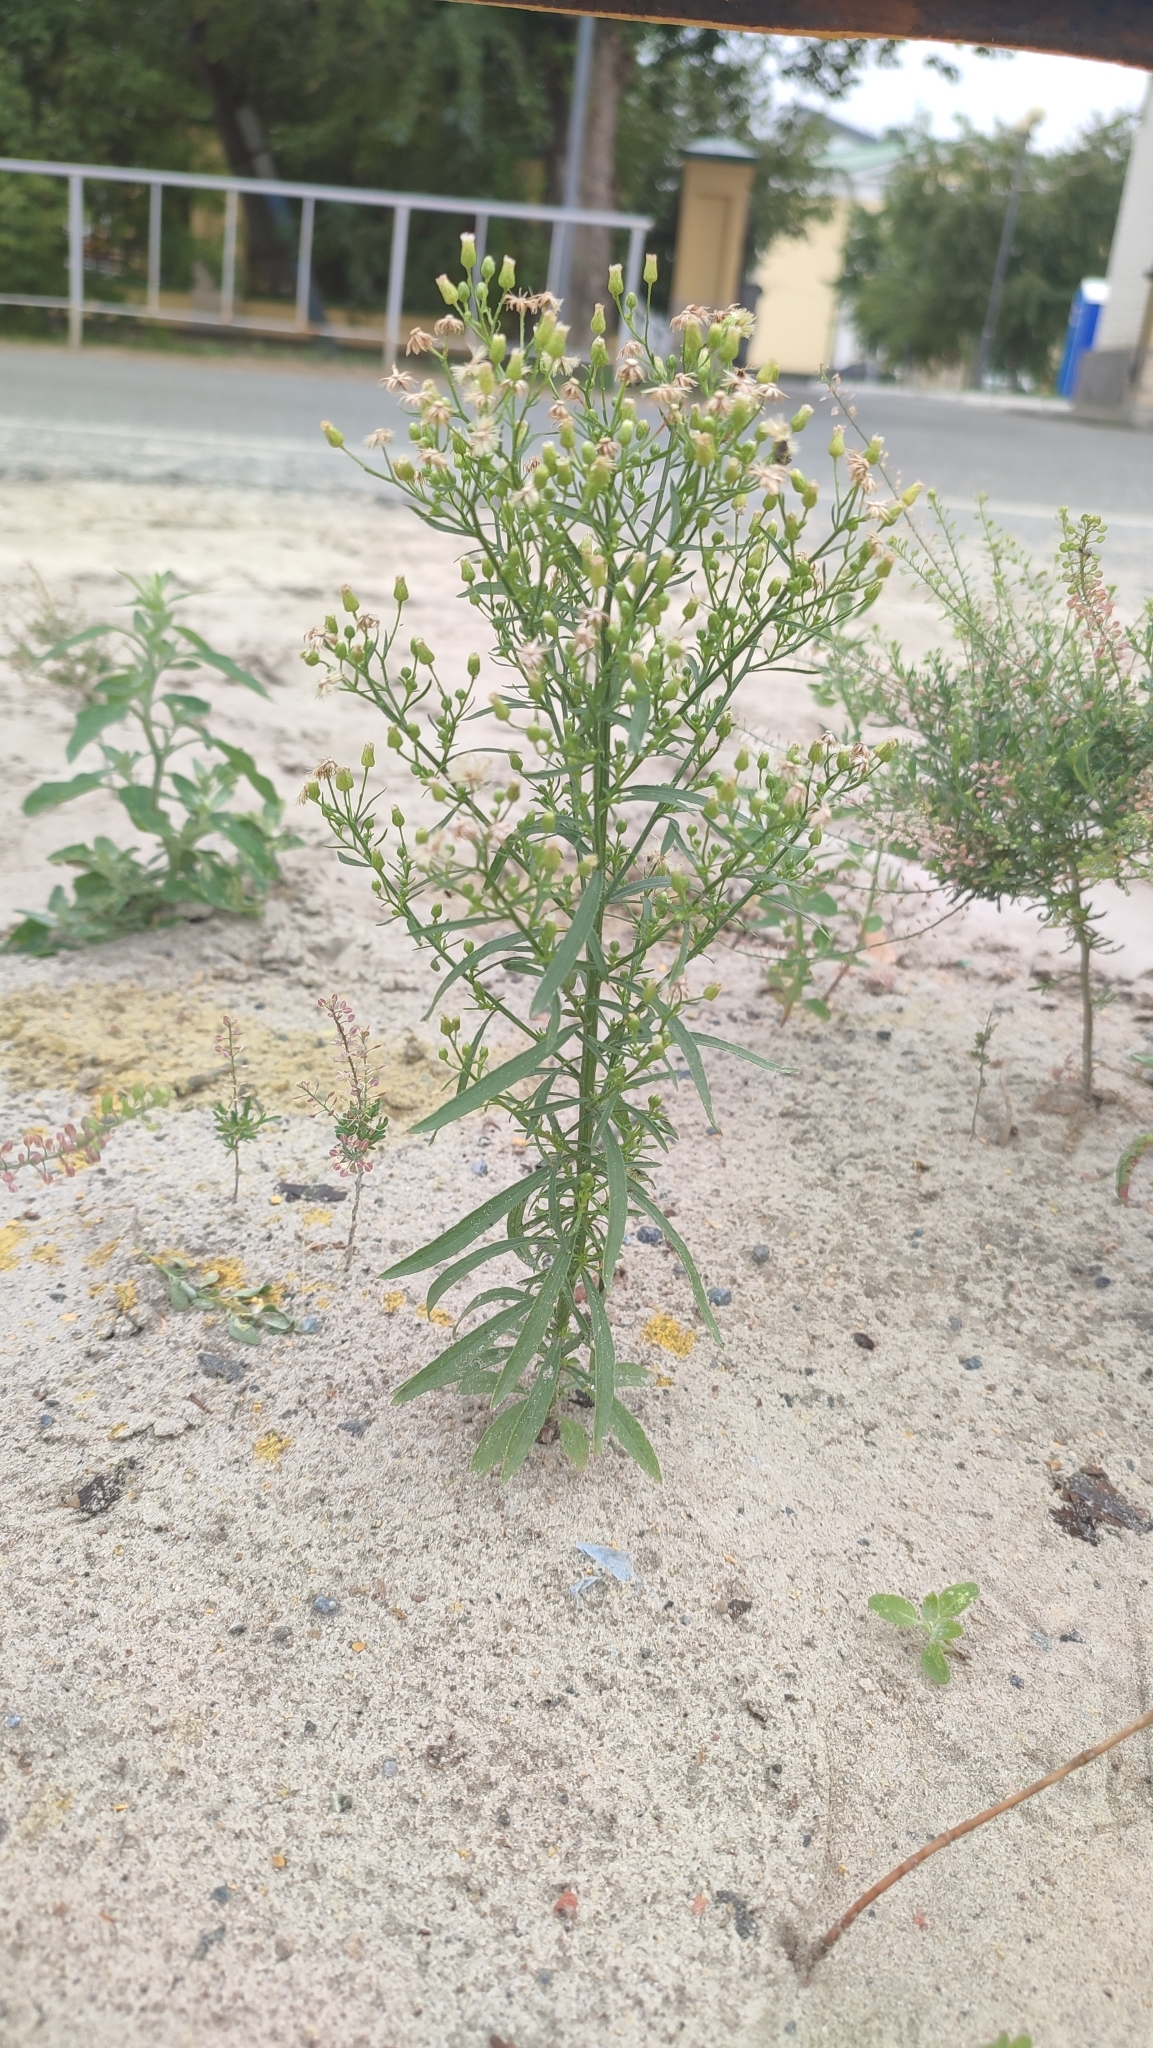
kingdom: Plantae
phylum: Tracheophyta
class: Magnoliopsida
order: Asterales
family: Asteraceae
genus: Erigeron
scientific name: Erigeron canadensis
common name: Canadian fleabane
